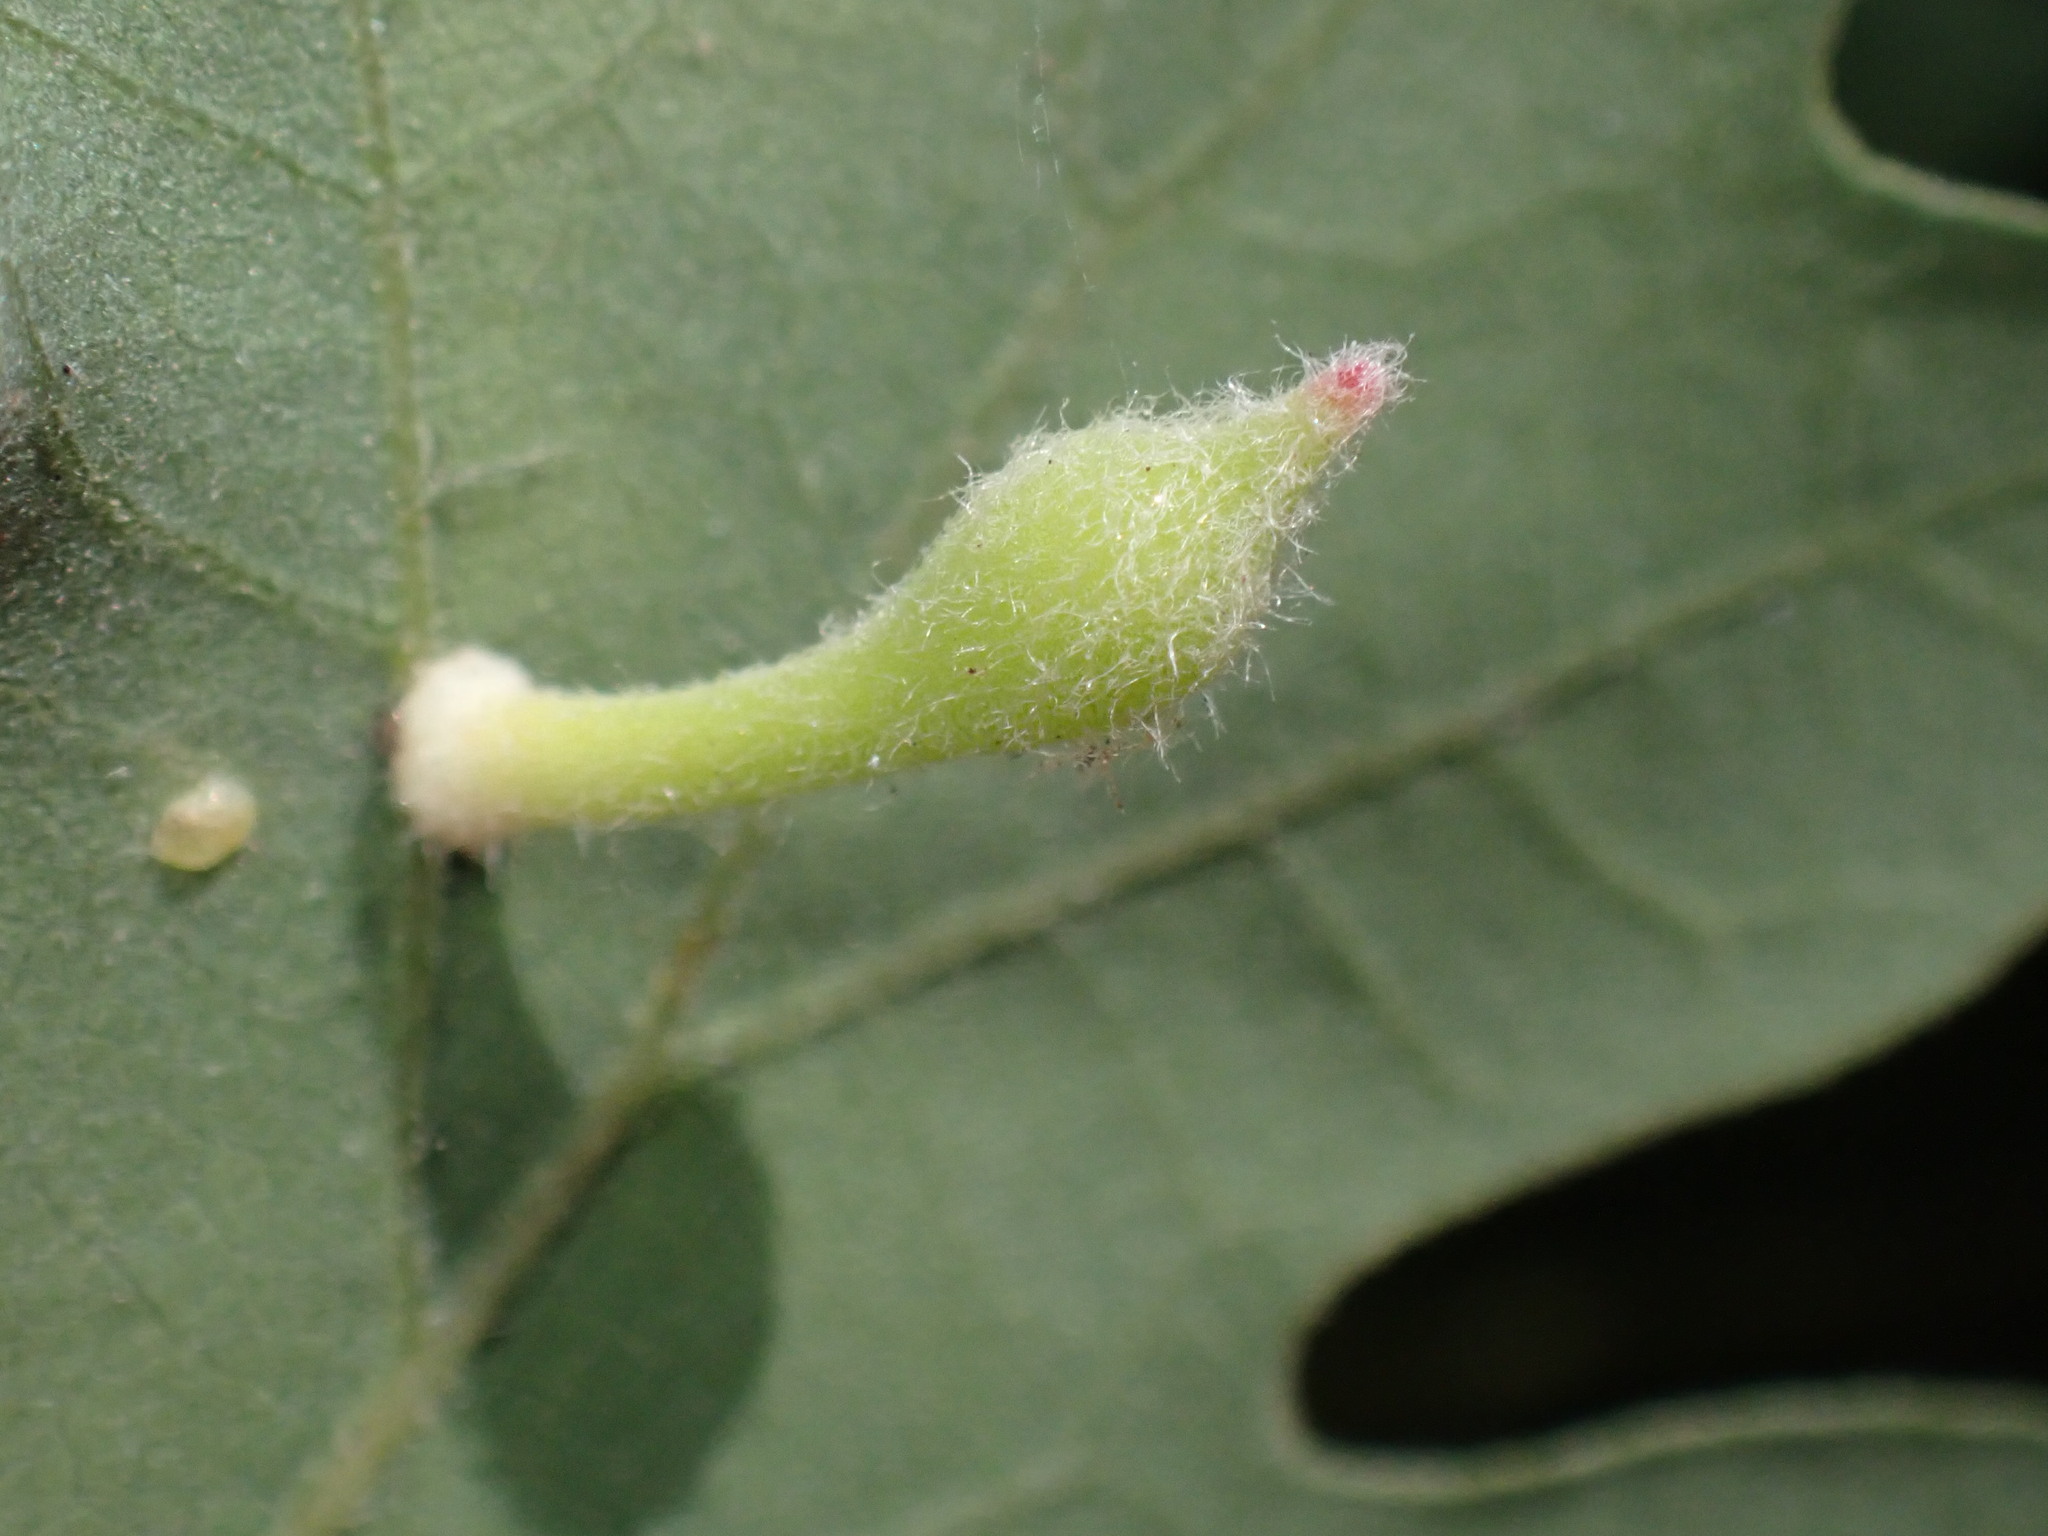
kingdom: Animalia
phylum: Arthropoda
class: Insecta
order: Hymenoptera
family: Cynipidae
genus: Atrusca
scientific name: Atrusca
